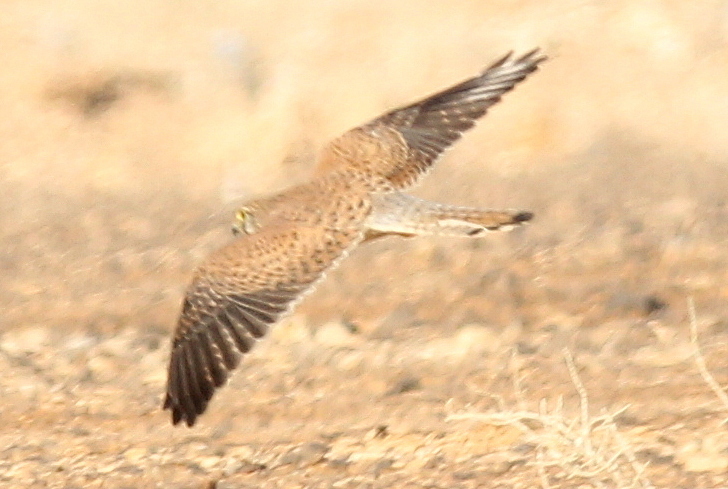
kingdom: Animalia
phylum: Chordata
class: Aves
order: Falconiformes
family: Falconidae
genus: Falco
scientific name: Falco tinnunculus
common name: Common kestrel
